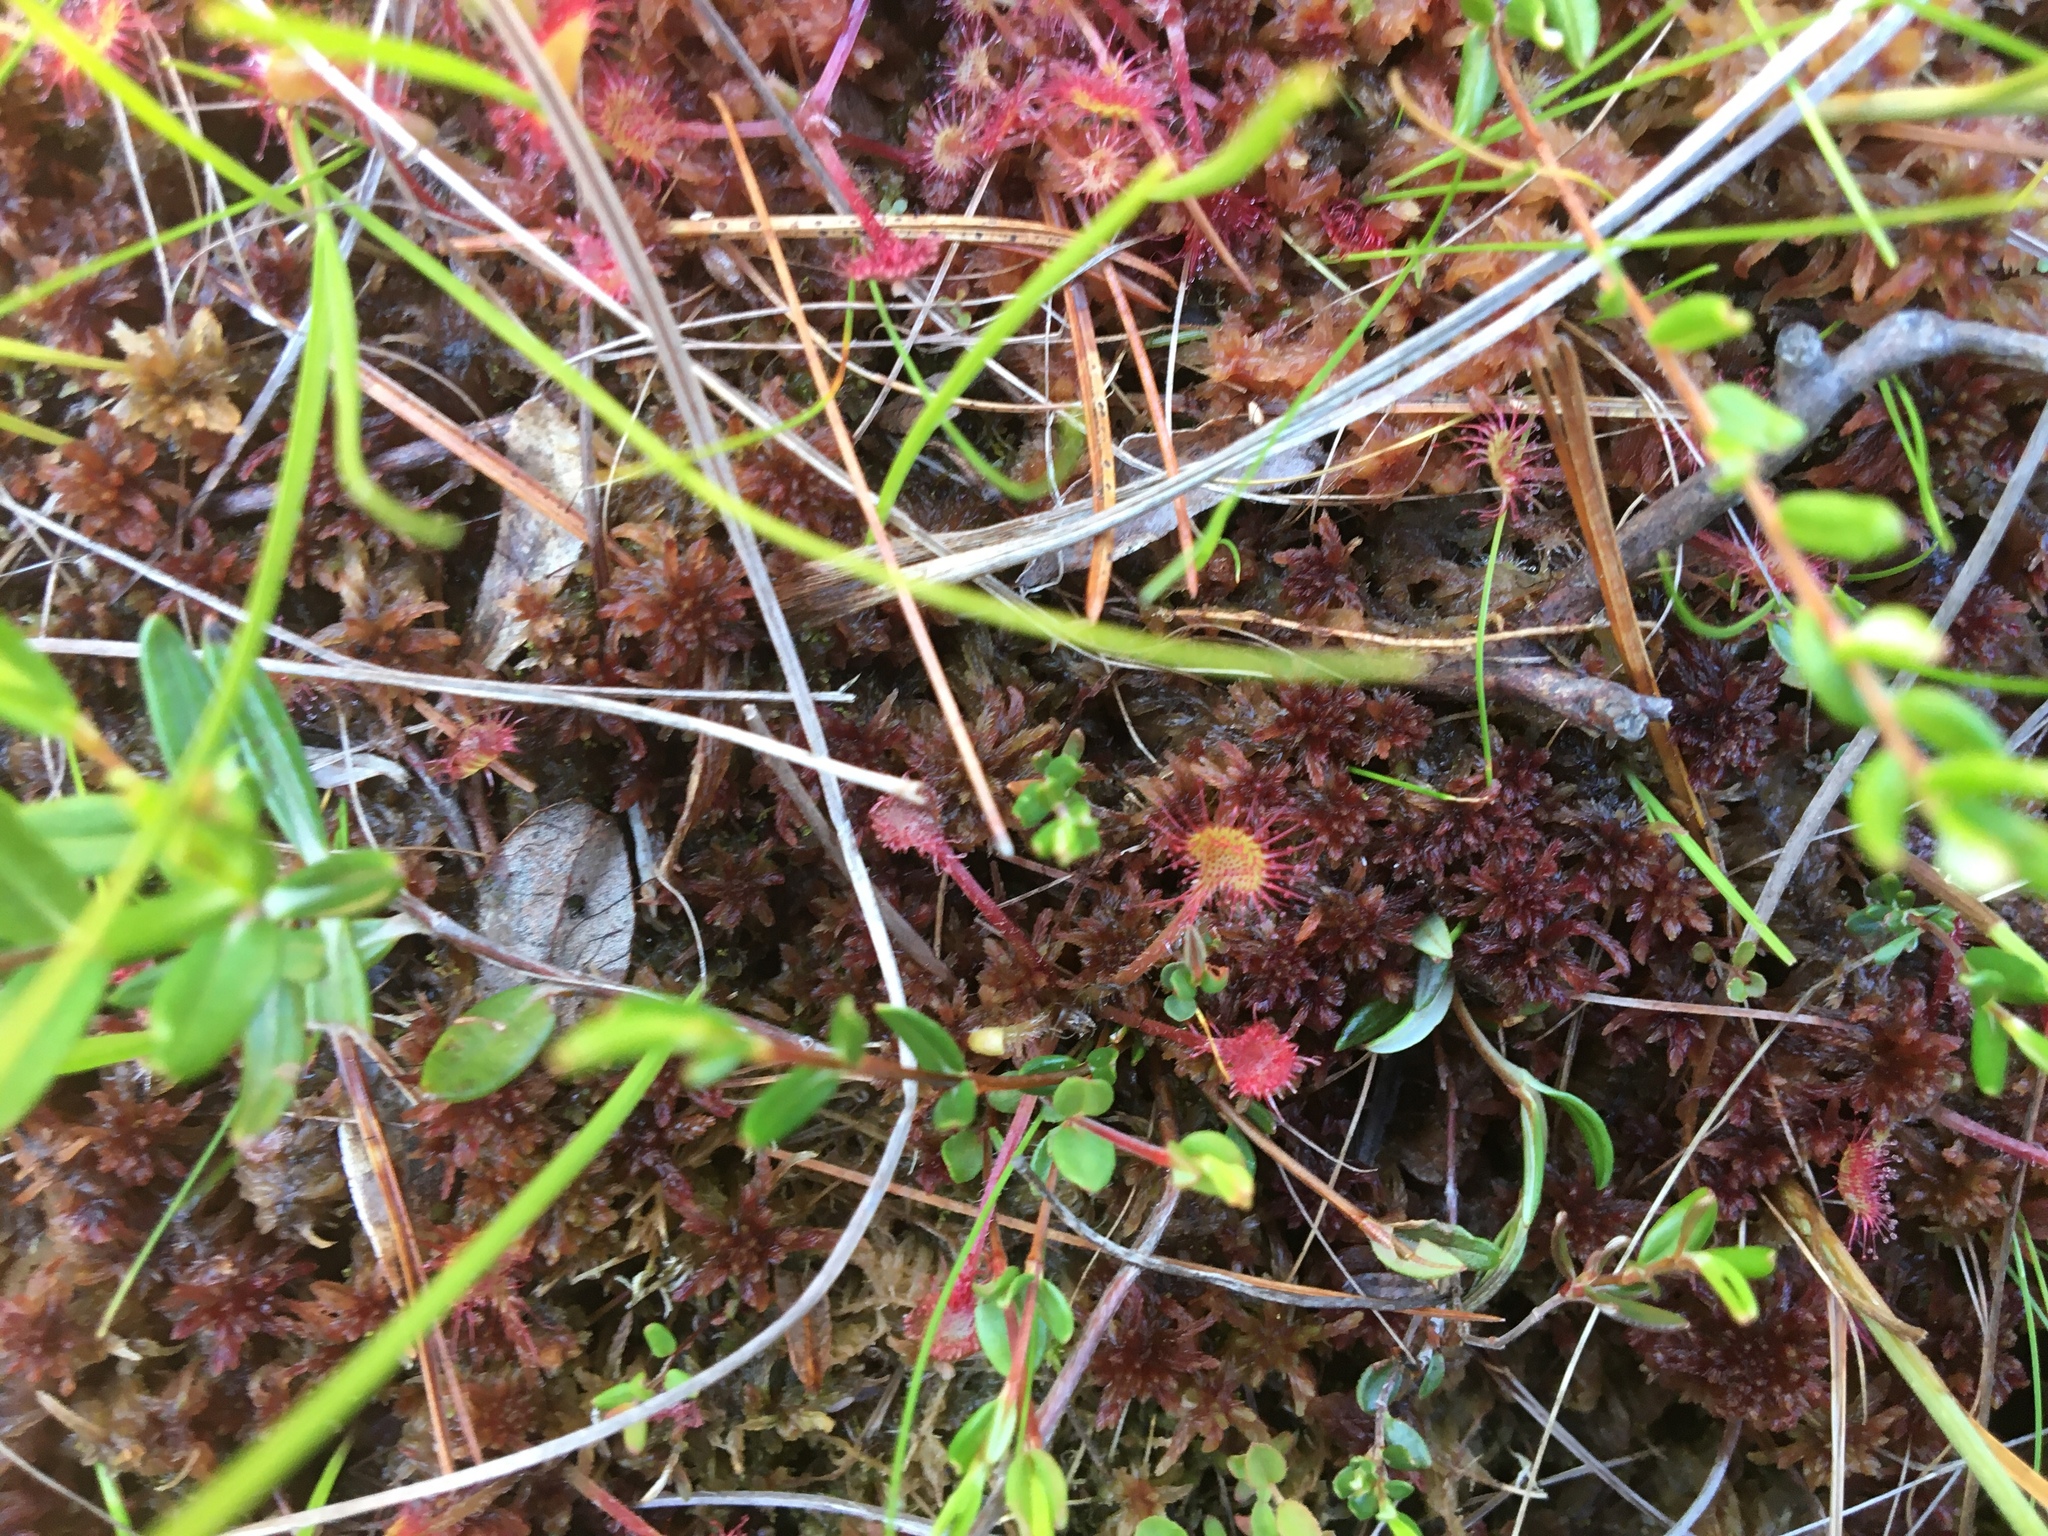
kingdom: Plantae
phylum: Tracheophyta
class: Magnoliopsida
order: Caryophyllales
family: Droseraceae
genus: Drosera
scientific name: Drosera rotundifolia
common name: Round-leaved sundew
